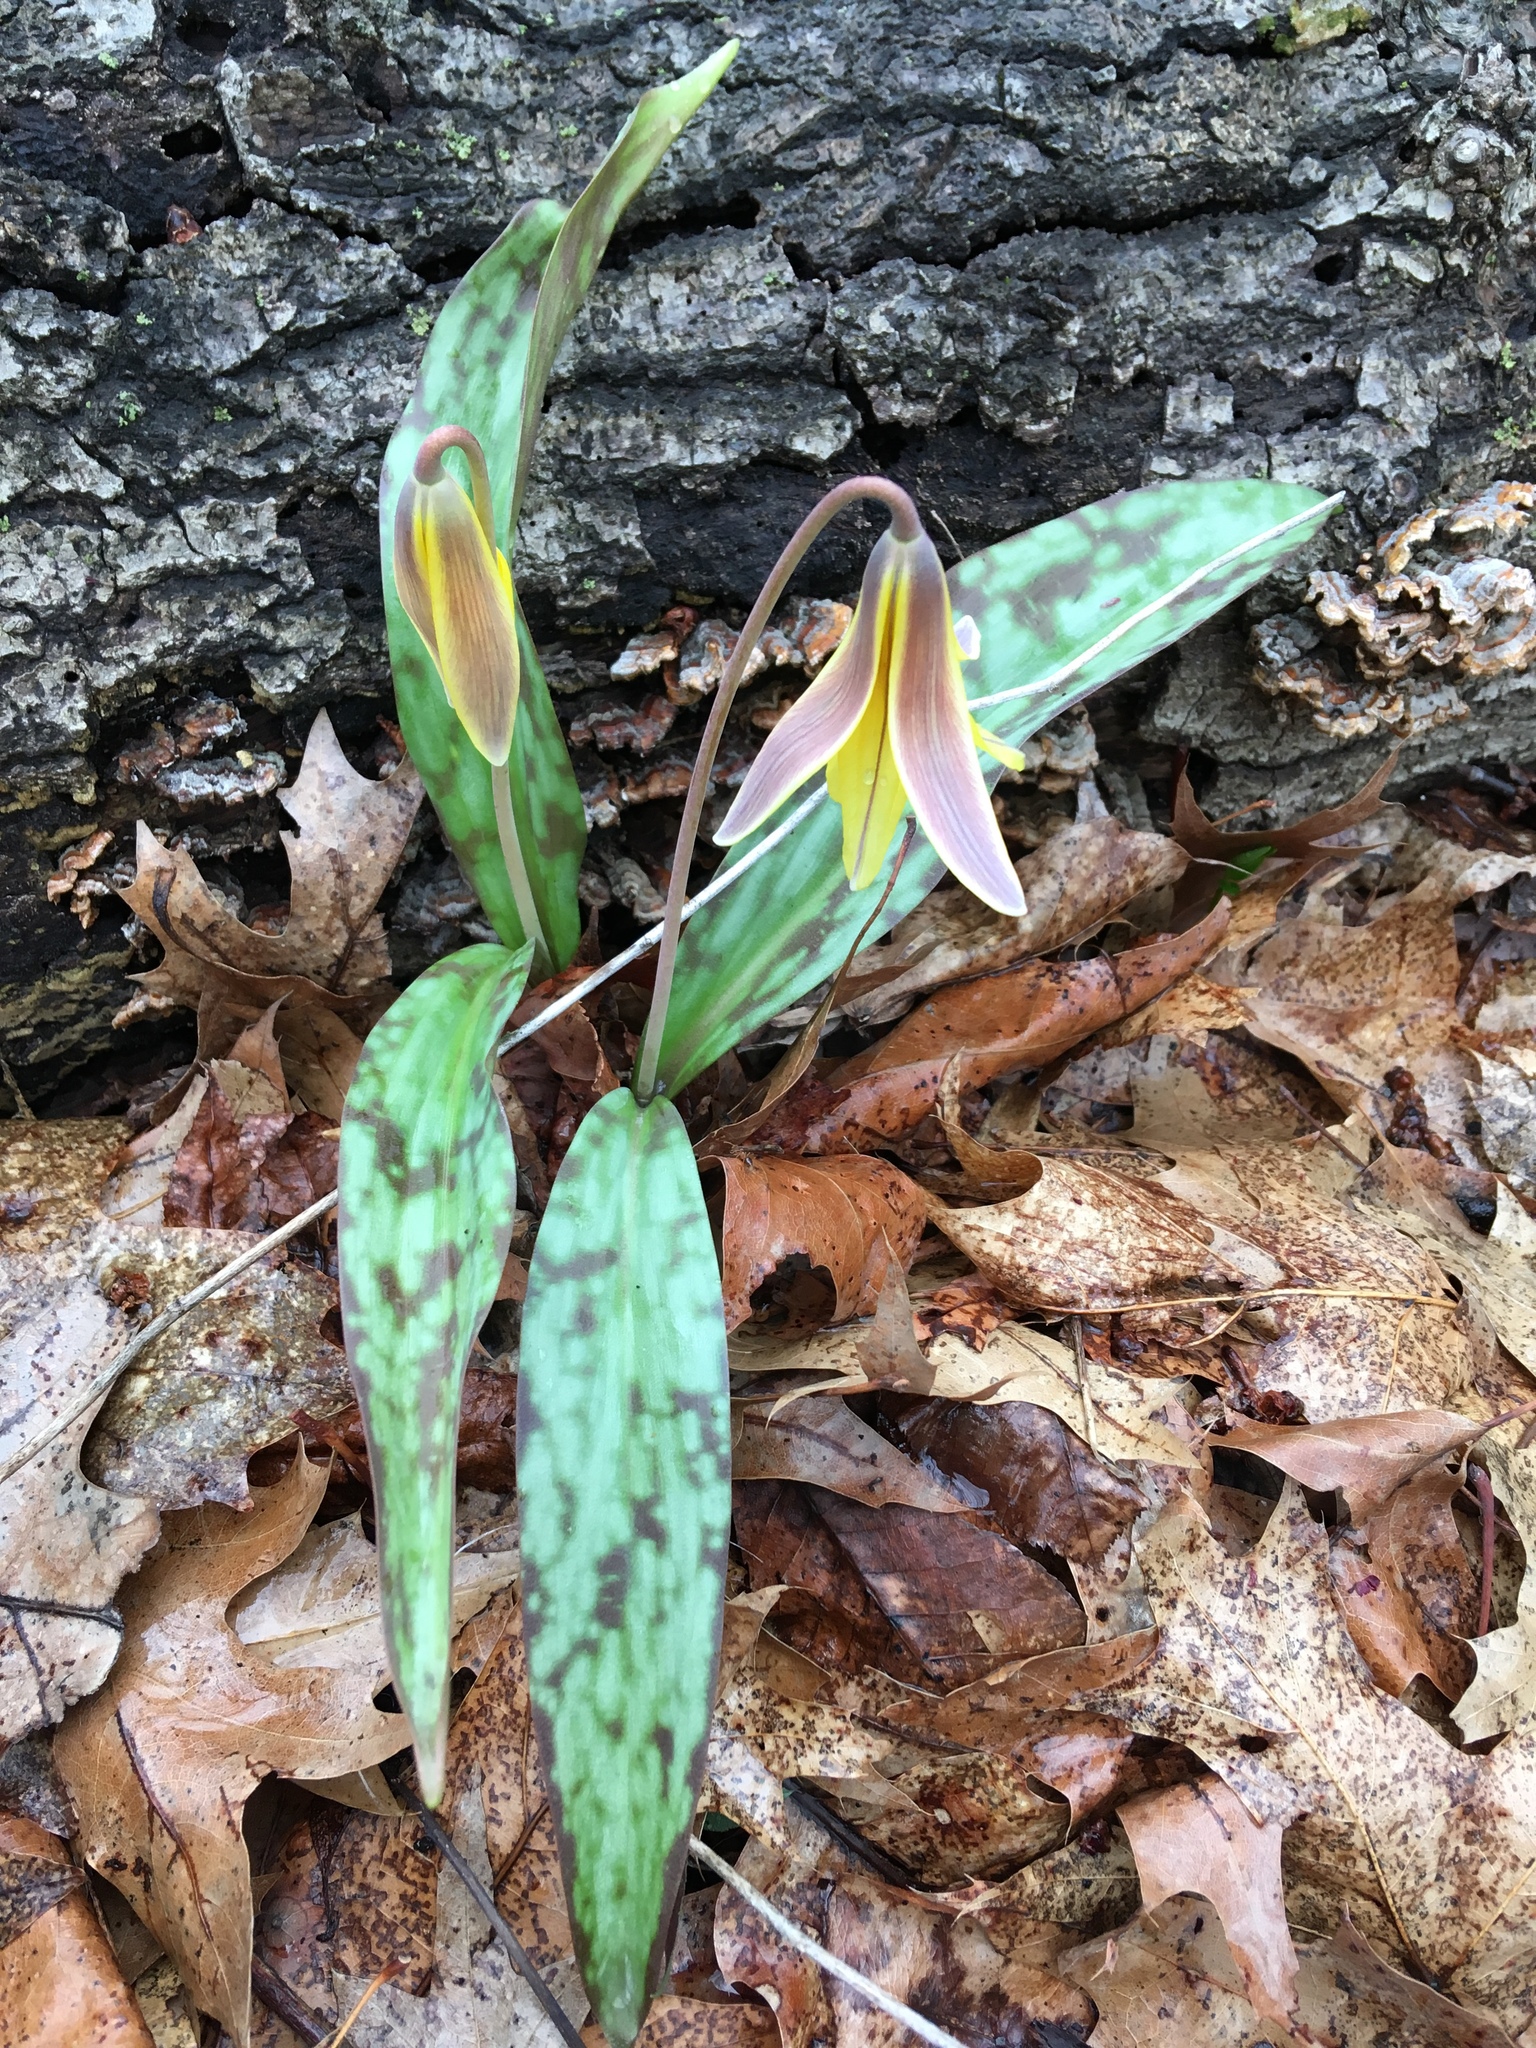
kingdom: Plantae
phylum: Tracheophyta
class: Liliopsida
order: Liliales
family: Liliaceae
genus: Erythronium
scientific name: Erythronium americanum
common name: Yellow adder's-tongue
